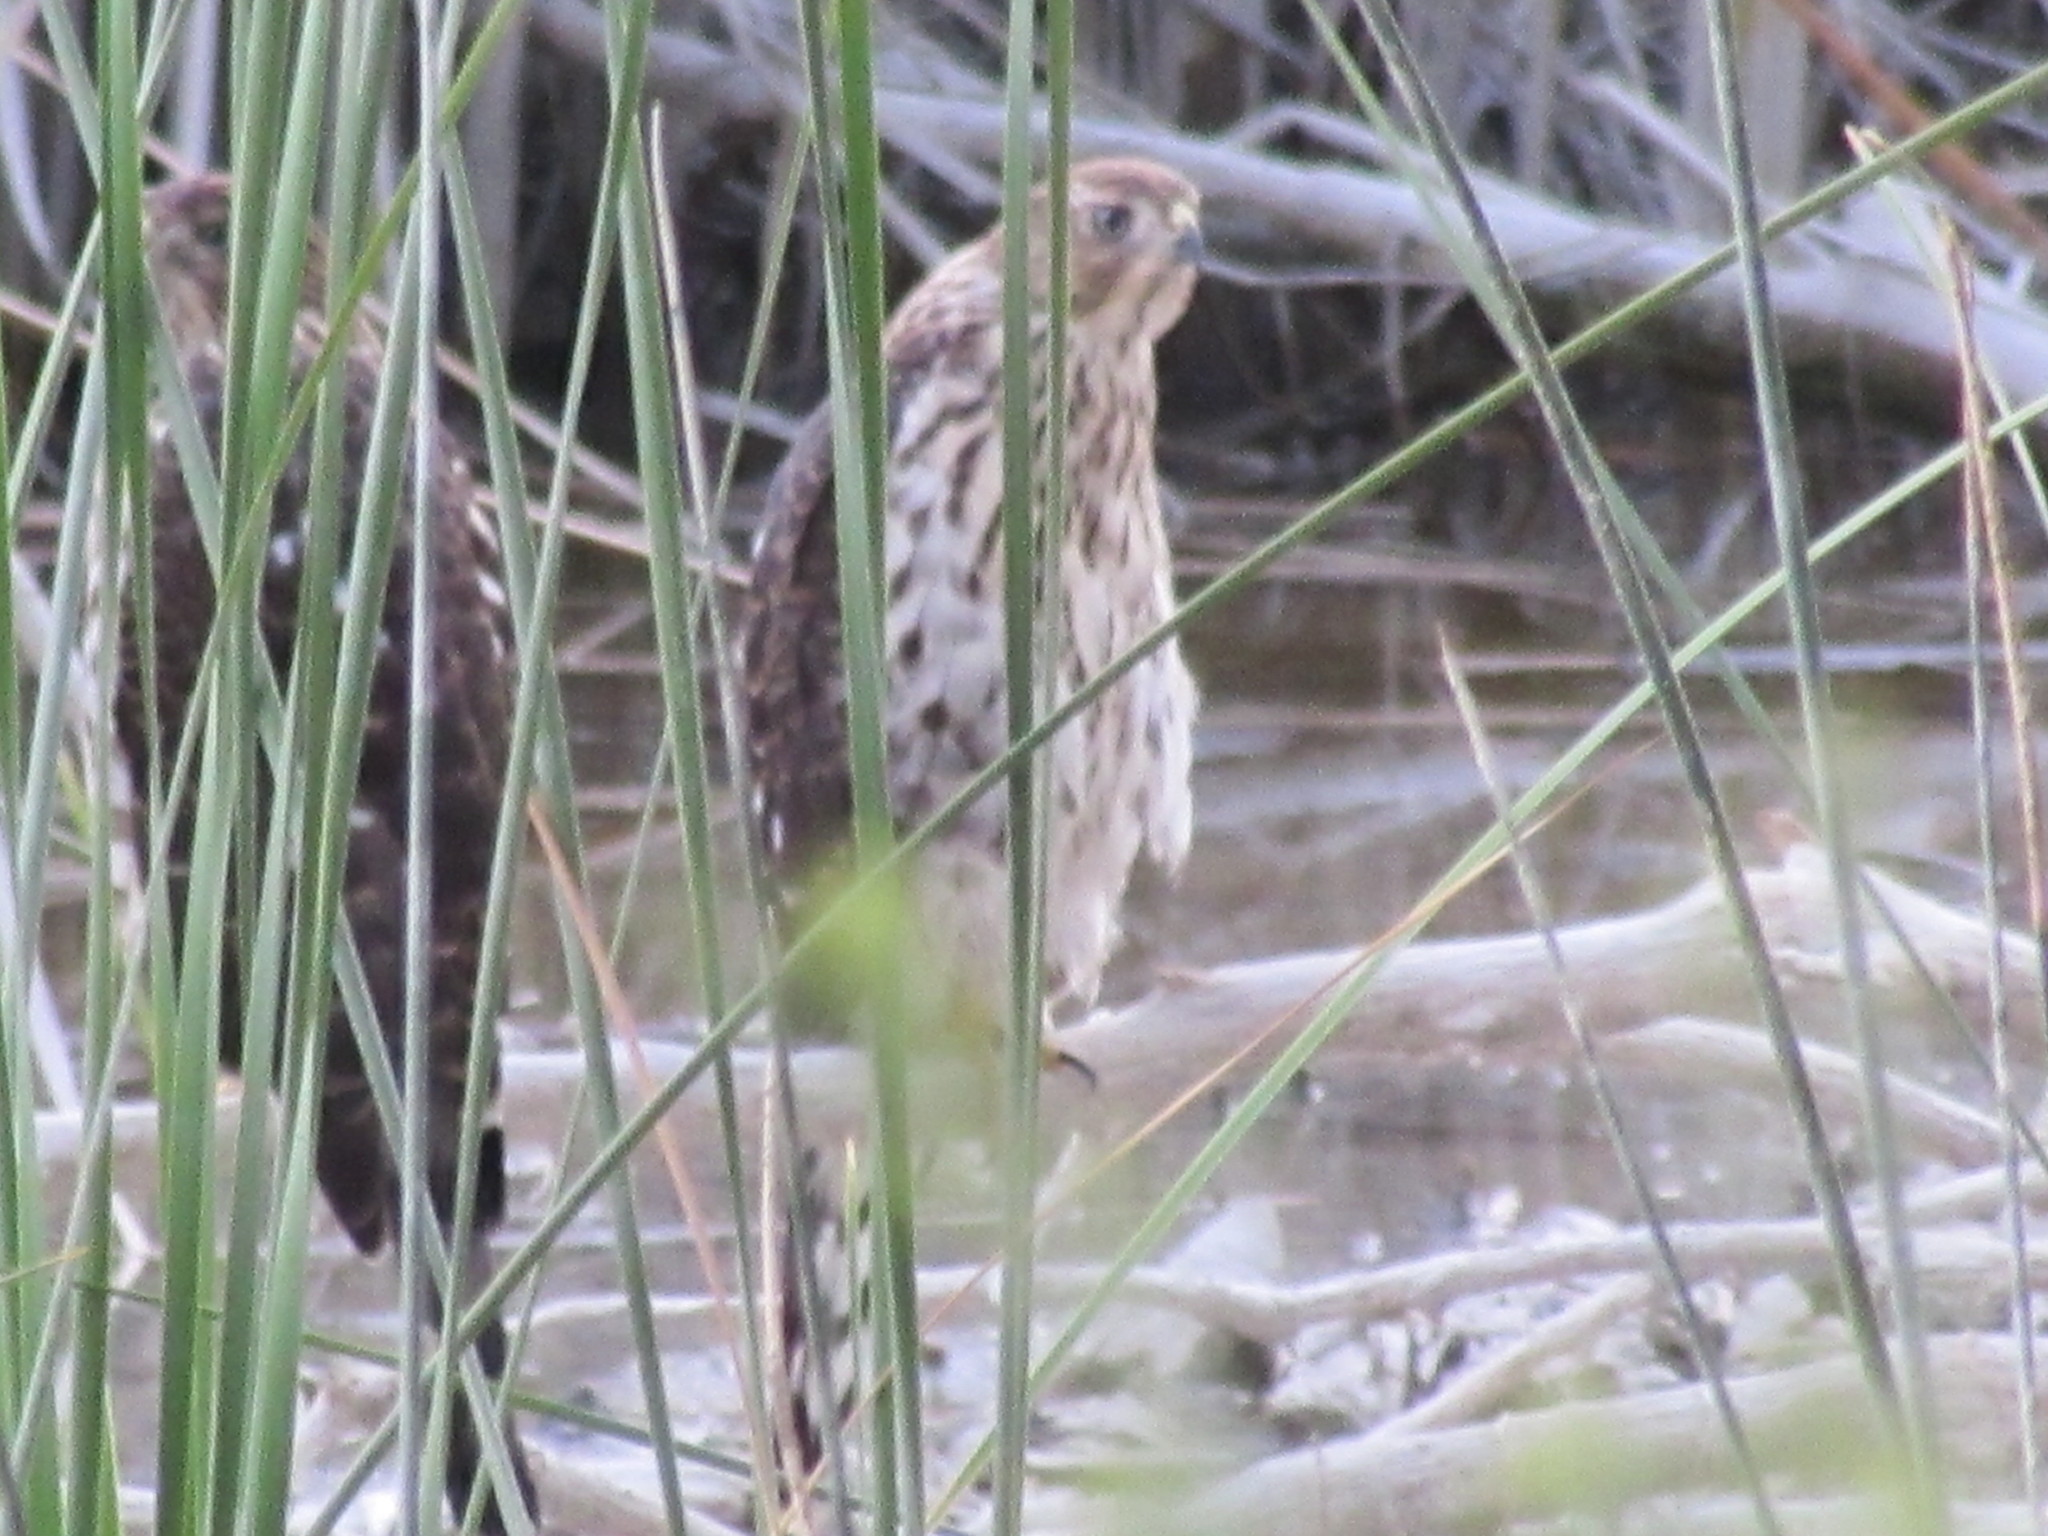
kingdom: Animalia
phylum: Chordata
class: Aves
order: Accipitriformes
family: Accipitridae
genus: Accipiter
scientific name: Accipiter cooperii
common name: Cooper's hawk
